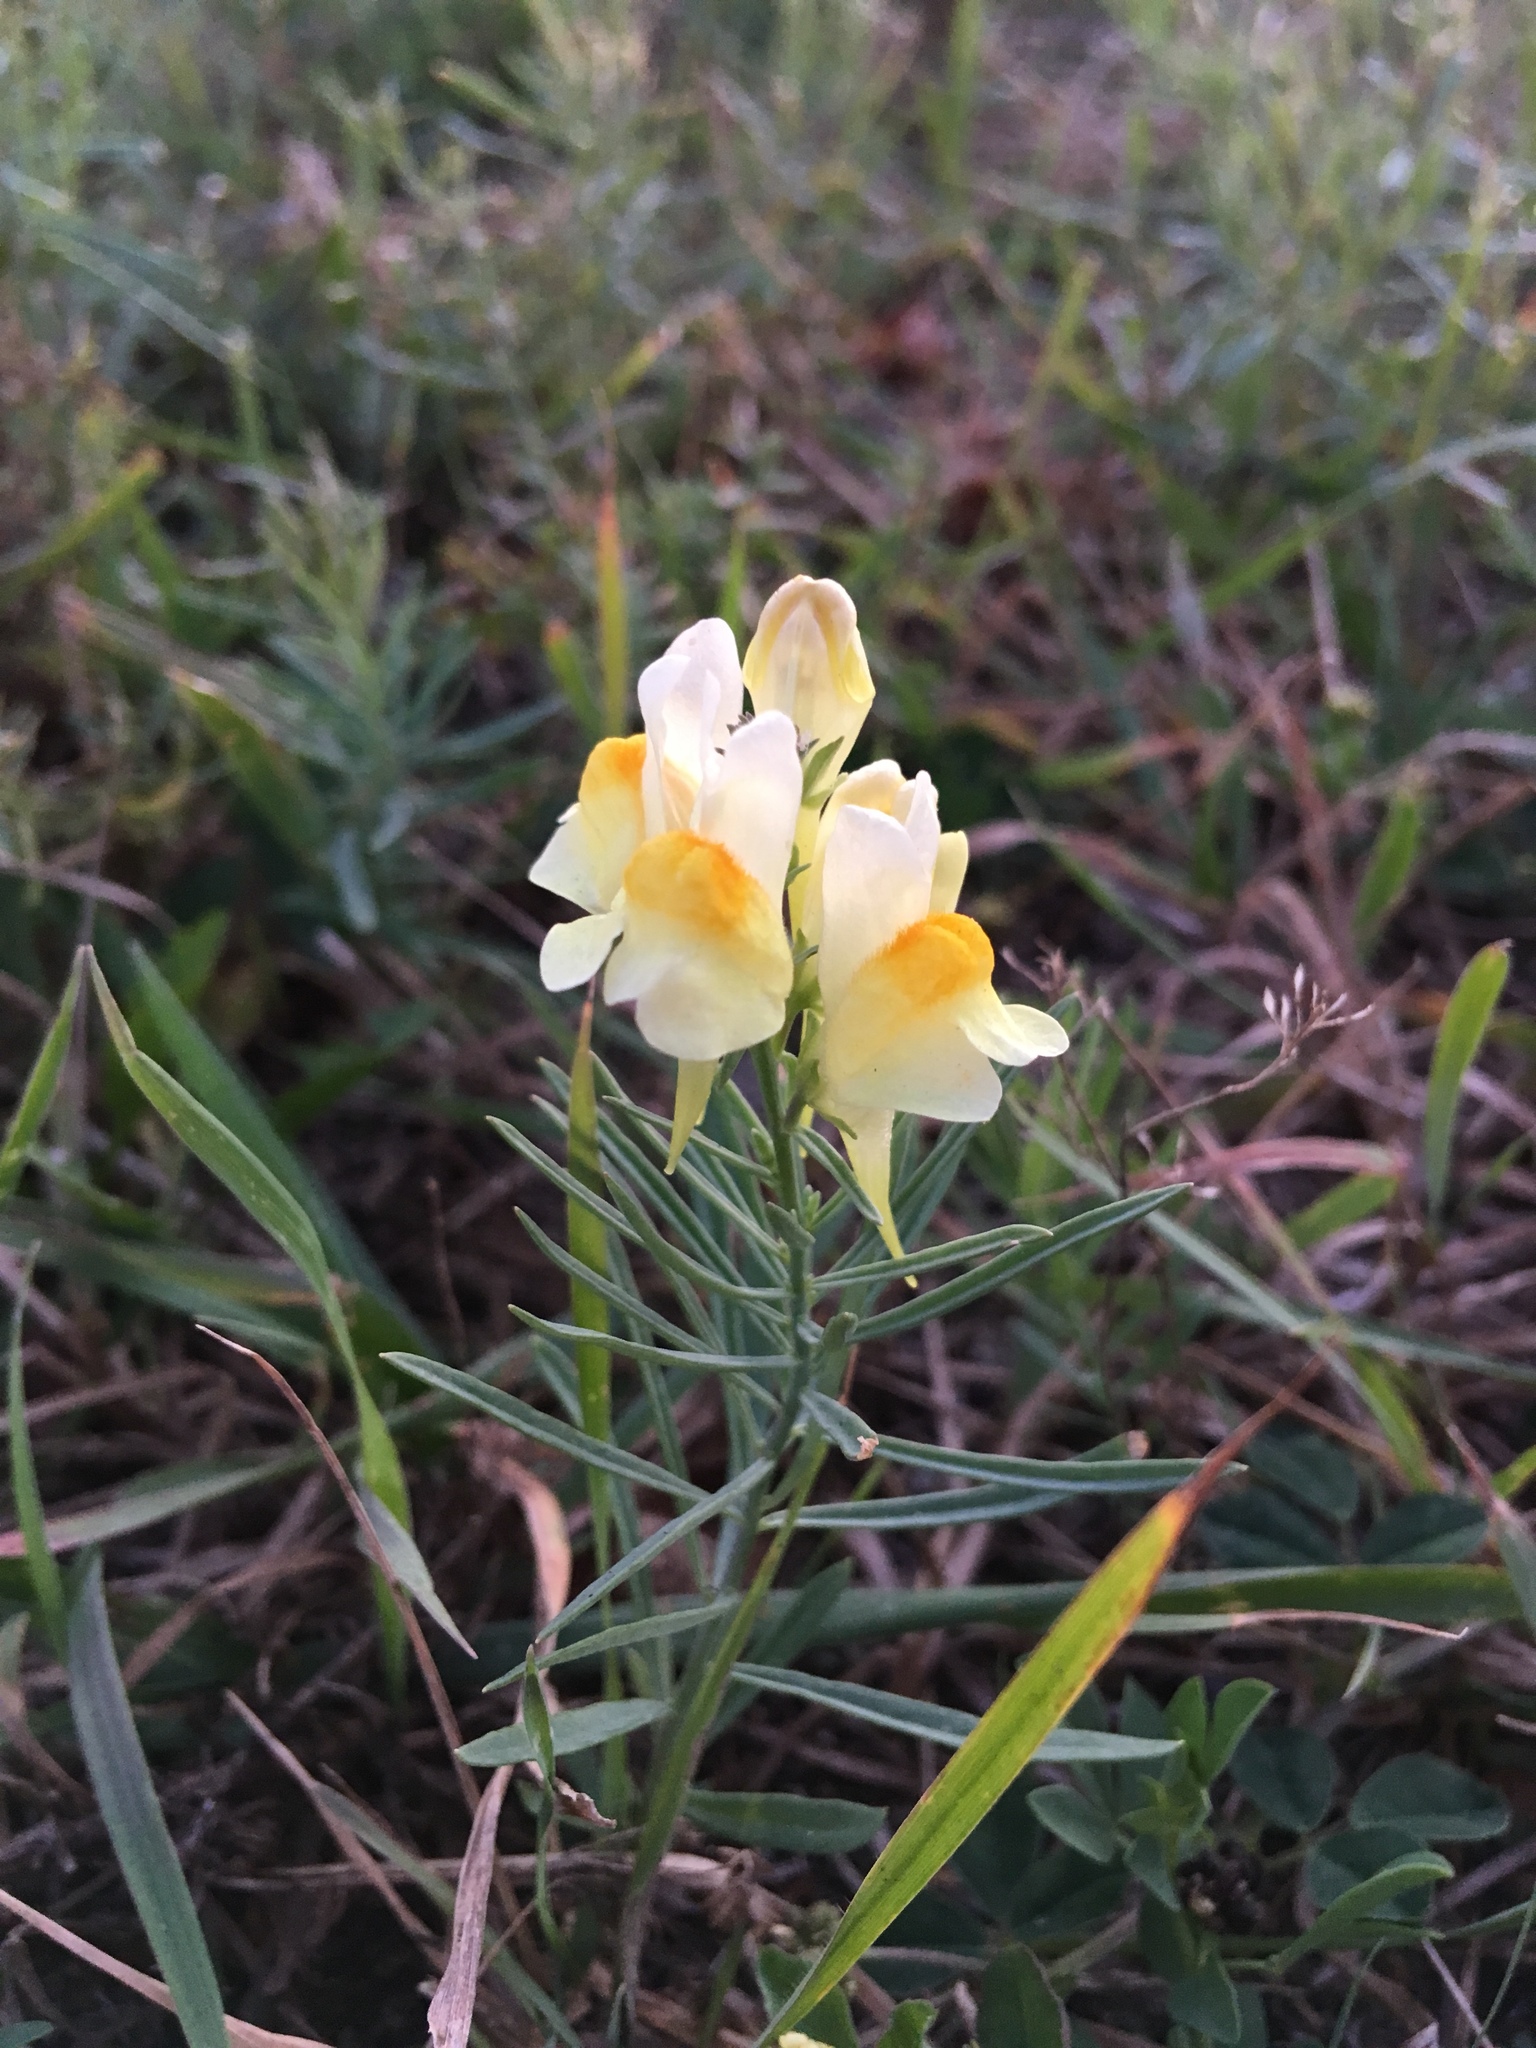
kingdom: Plantae
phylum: Tracheophyta
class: Magnoliopsida
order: Lamiales
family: Plantaginaceae
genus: Linaria
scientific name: Linaria vulgaris
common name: Butter and eggs
